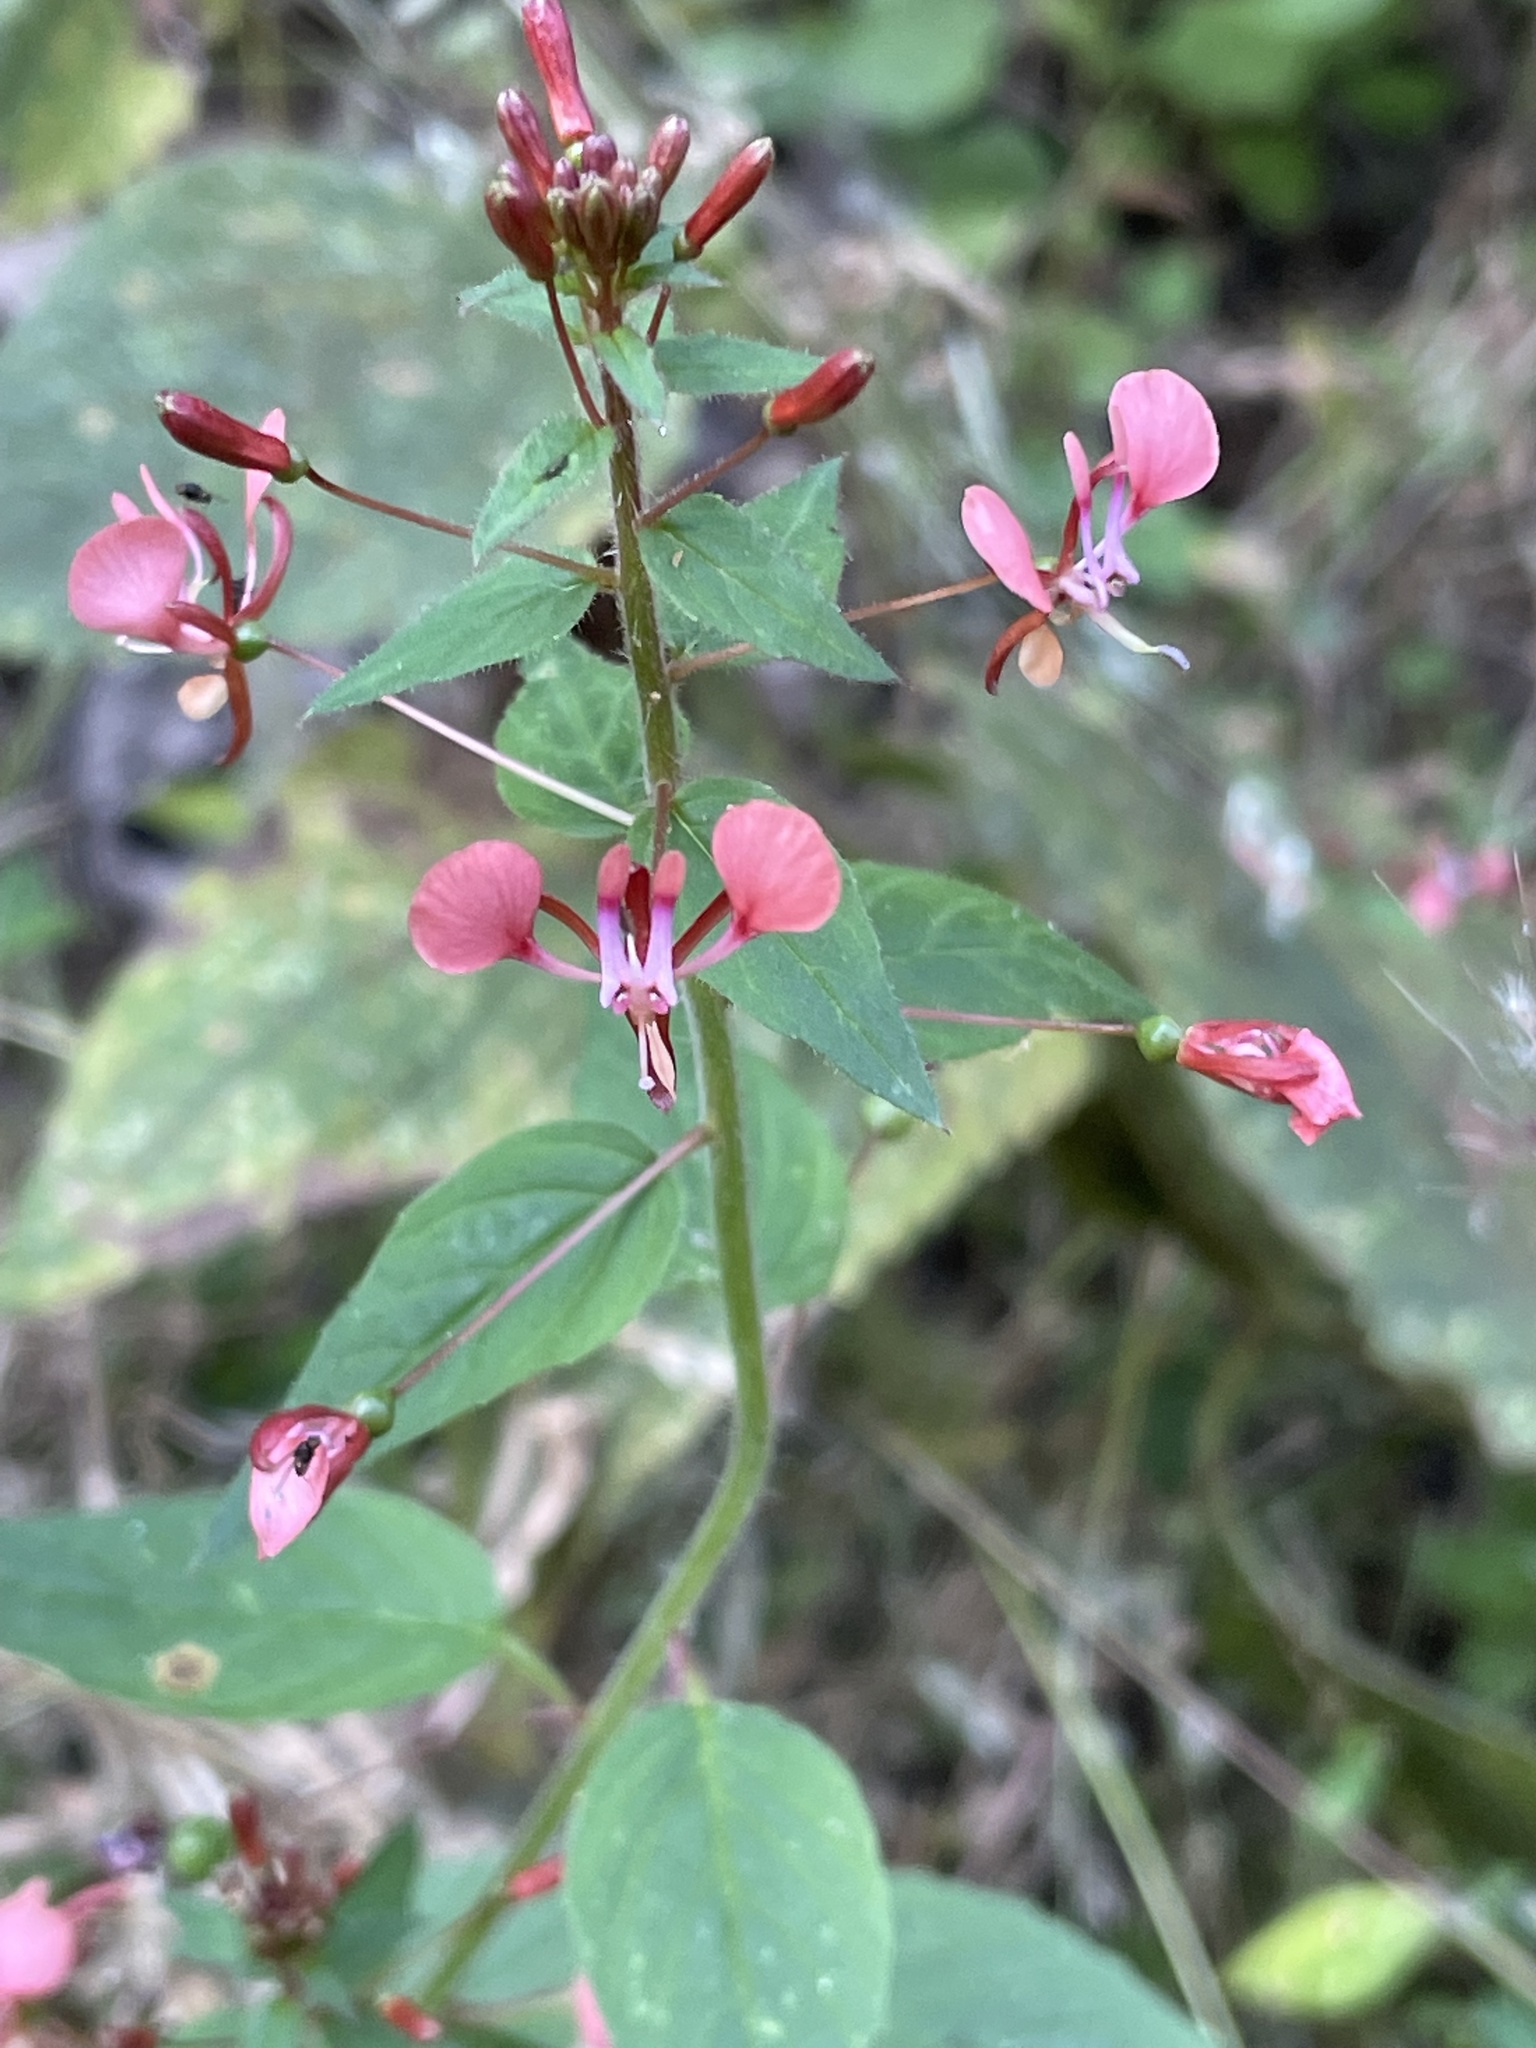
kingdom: Plantae
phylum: Tracheophyta
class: Magnoliopsida
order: Myrtales
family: Onagraceae
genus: Lopezia
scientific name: Lopezia racemosa
